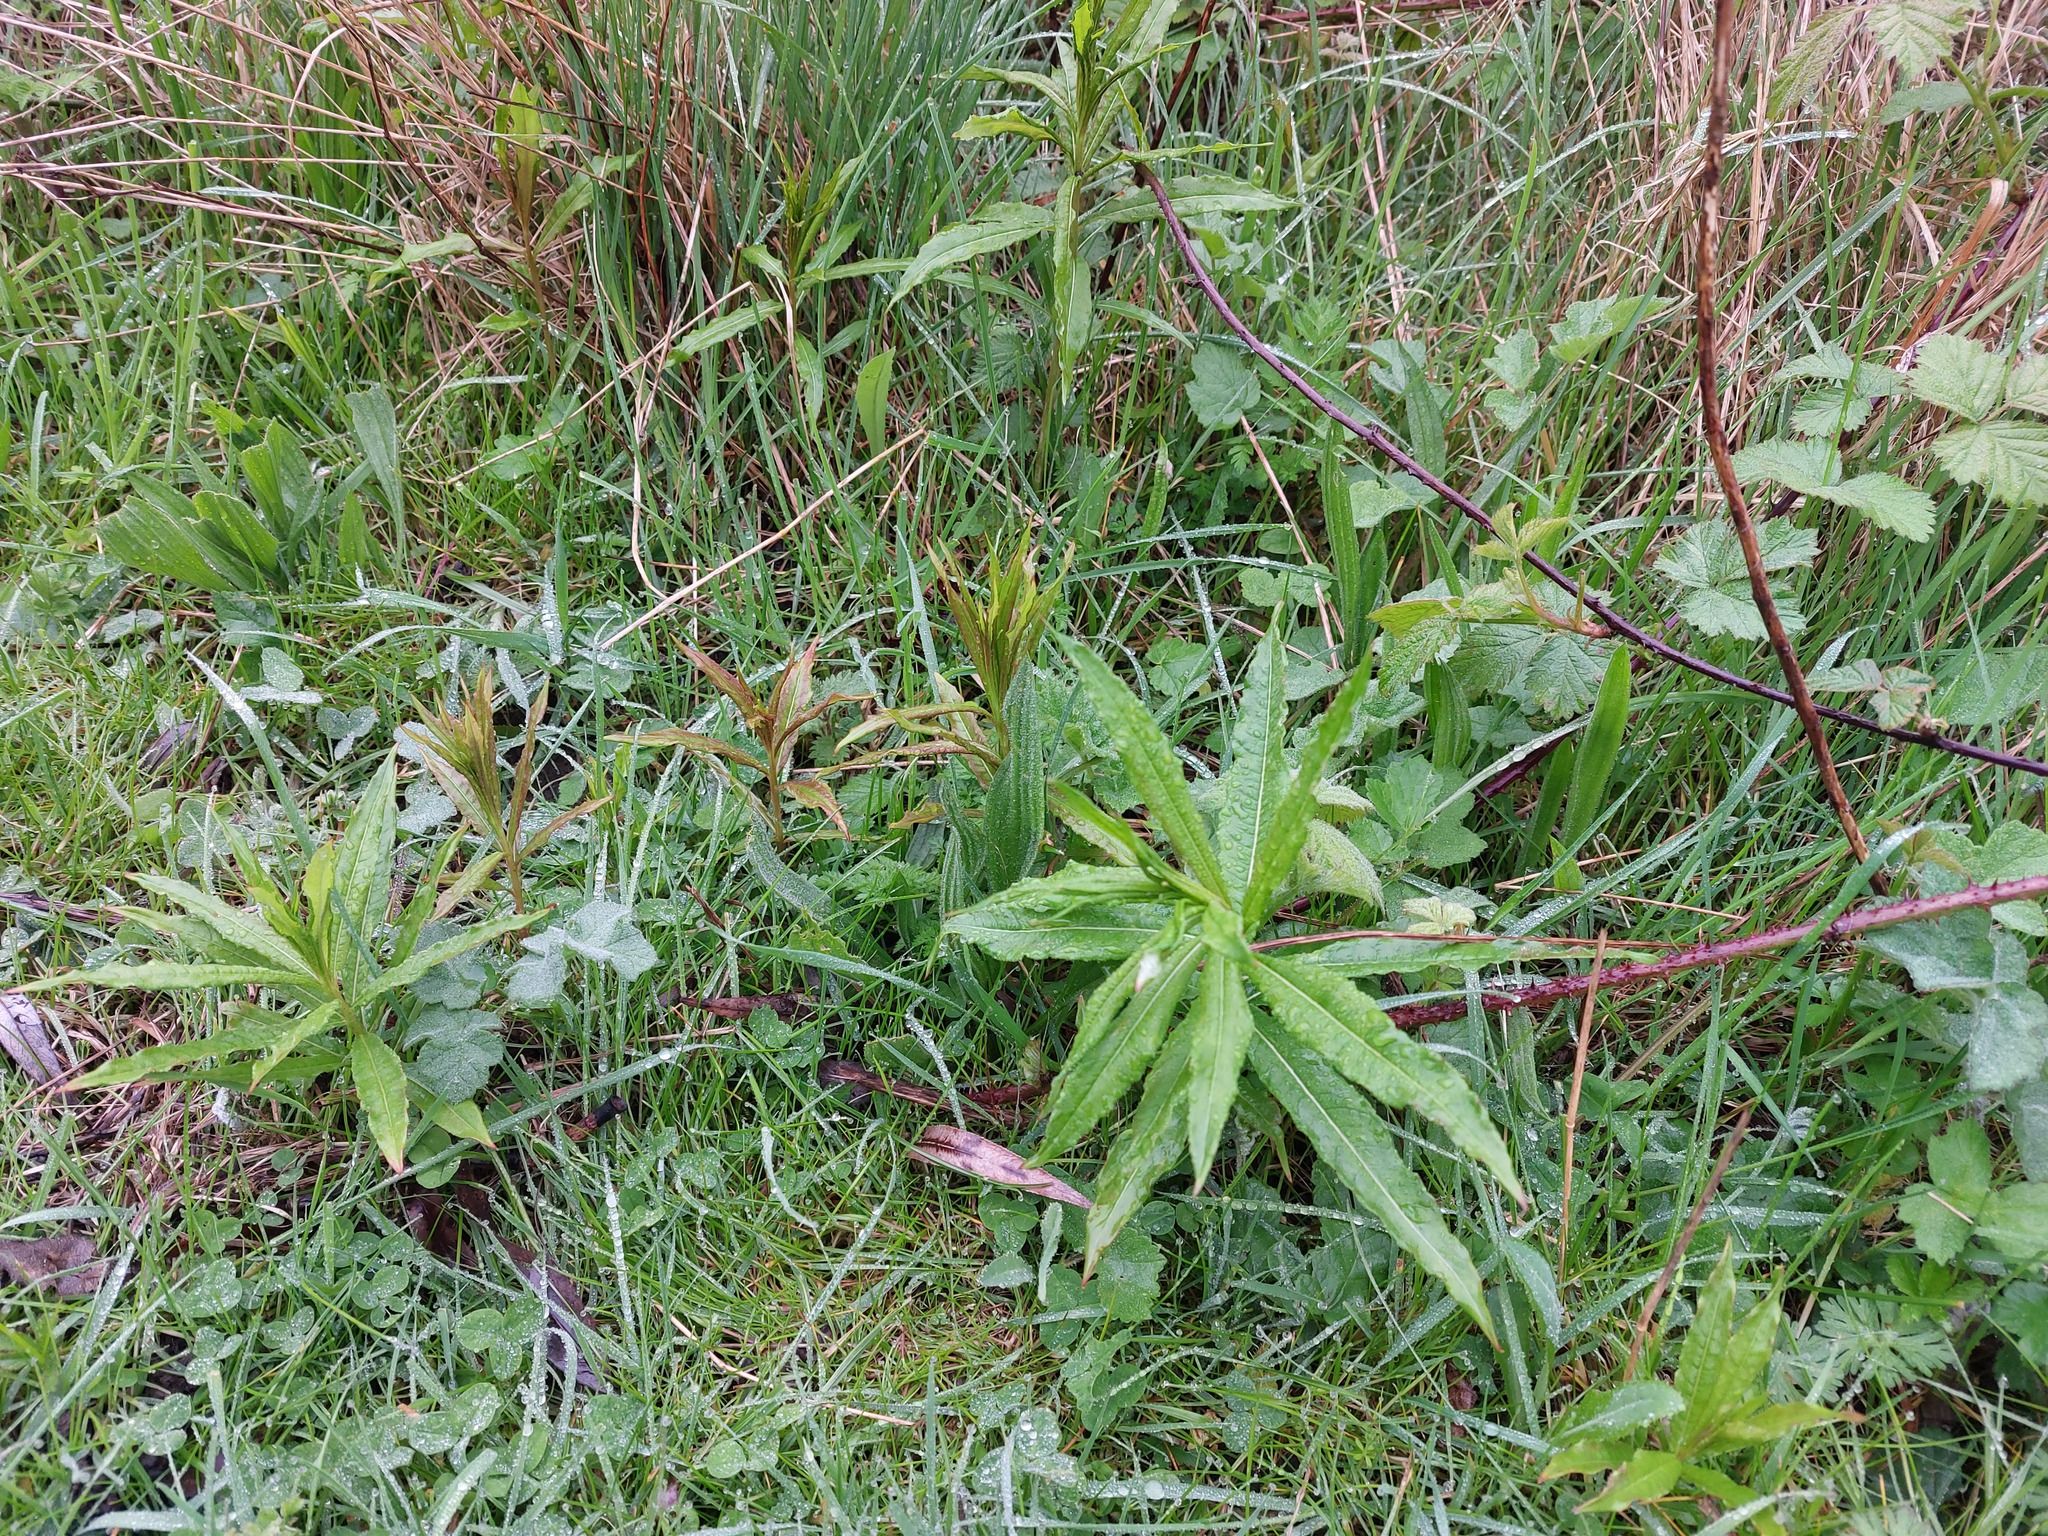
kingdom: Plantae
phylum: Tracheophyta
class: Magnoliopsida
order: Myrtales
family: Onagraceae
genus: Chamaenerion
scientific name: Chamaenerion angustifolium
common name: Fireweed
